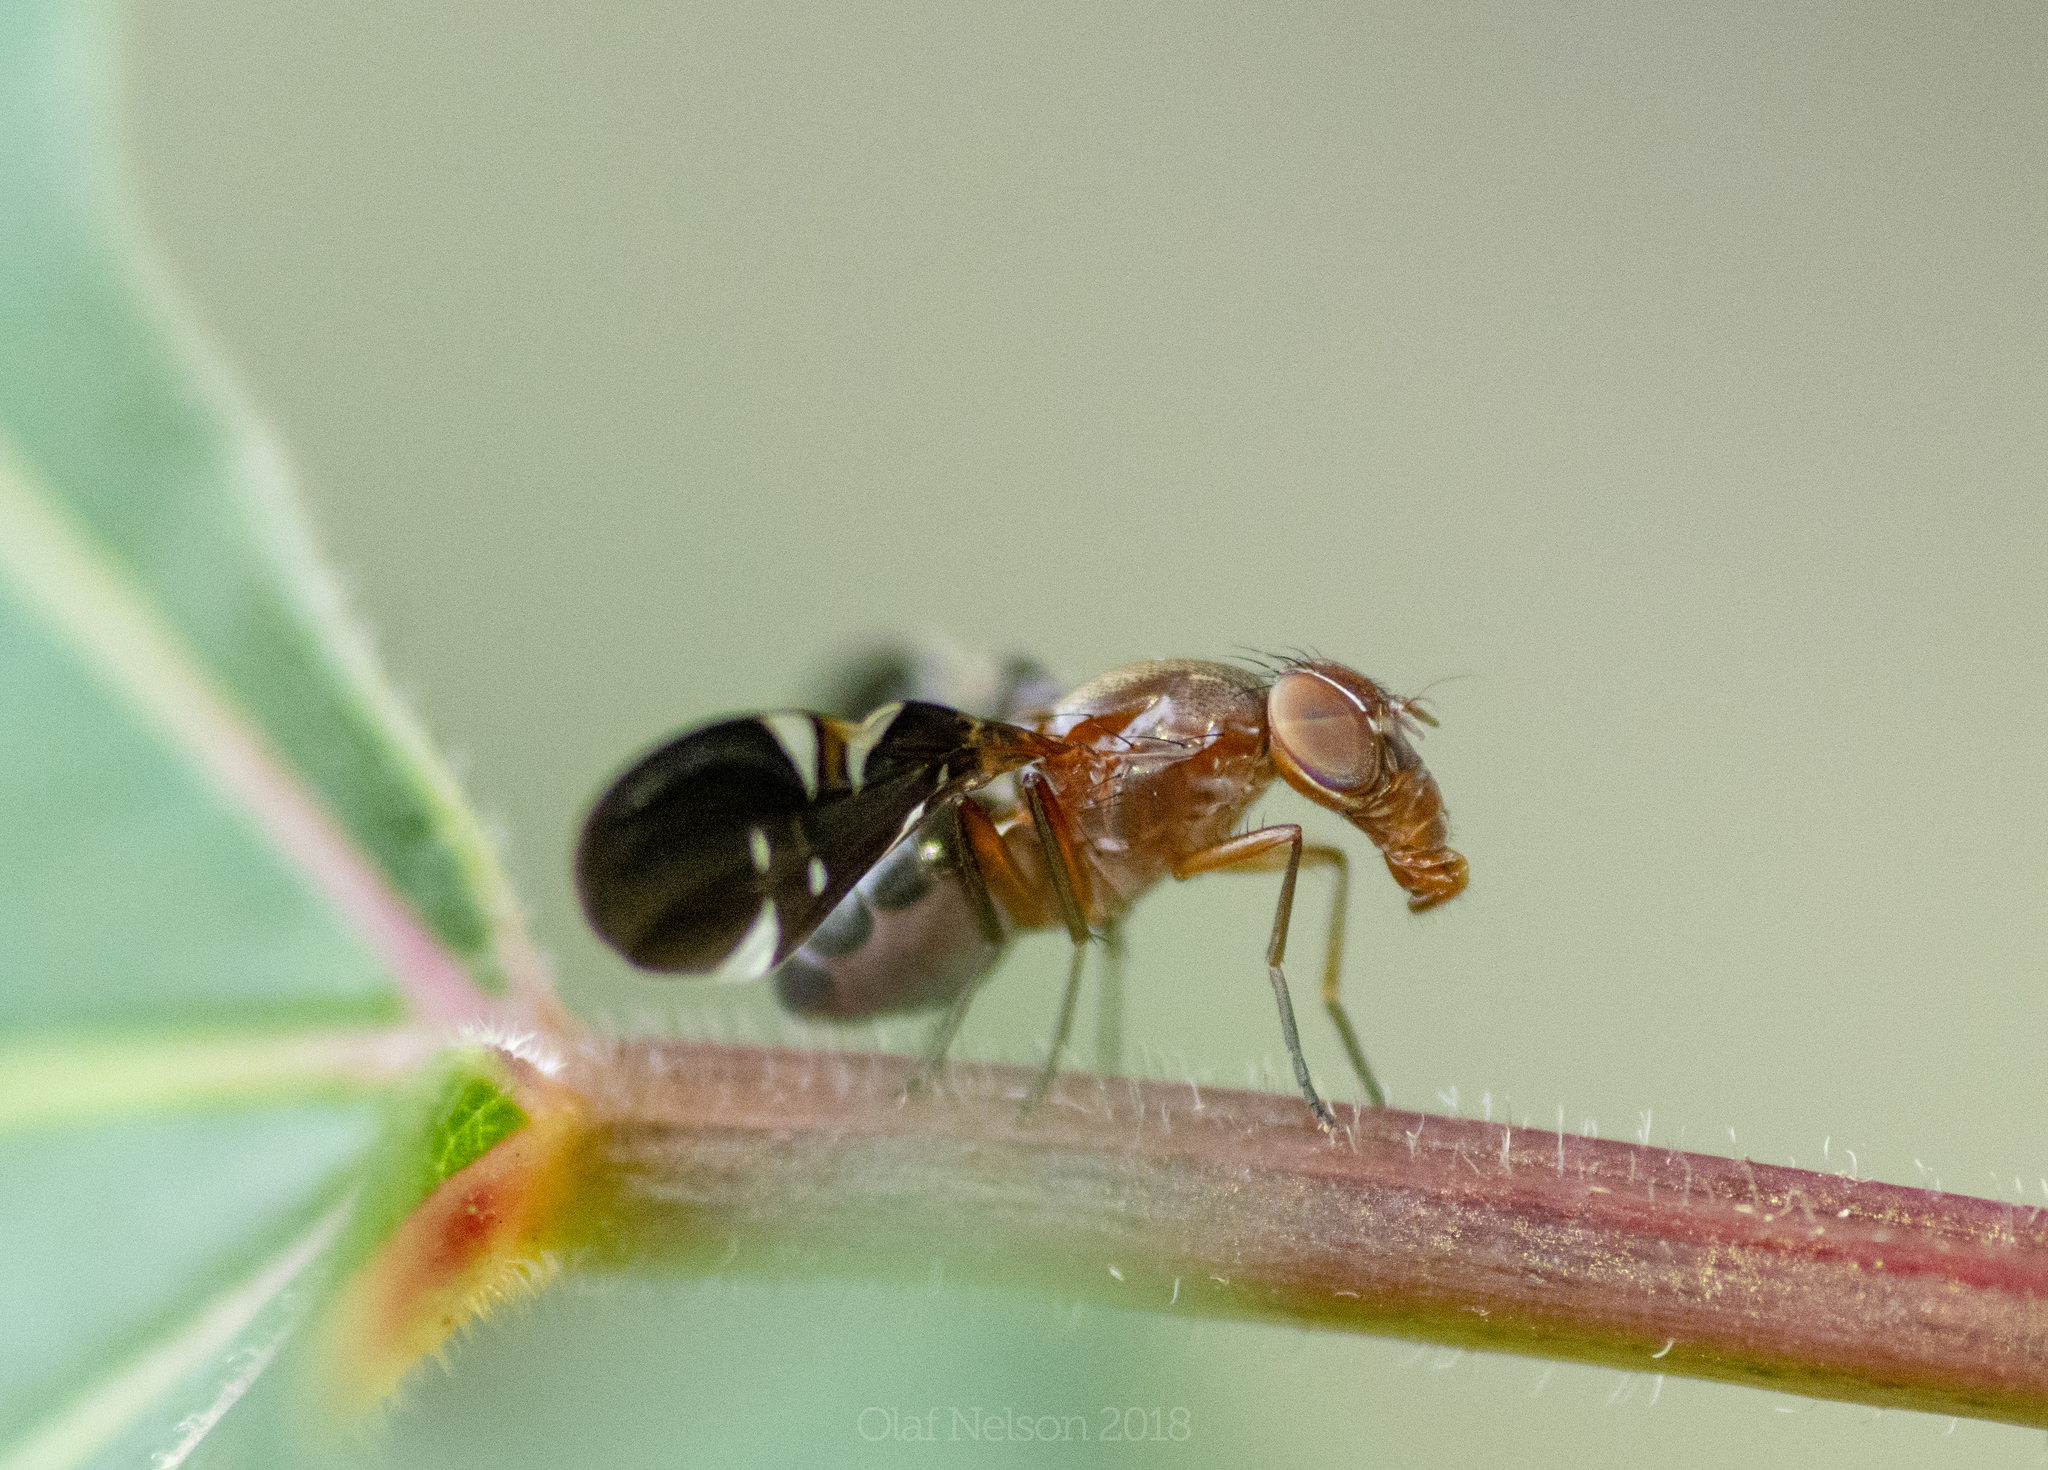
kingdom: Animalia
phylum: Arthropoda
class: Insecta
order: Diptera
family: Ulidiidae
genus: Delphinia
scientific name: Delphinia picta
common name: Common picture-winged fly
